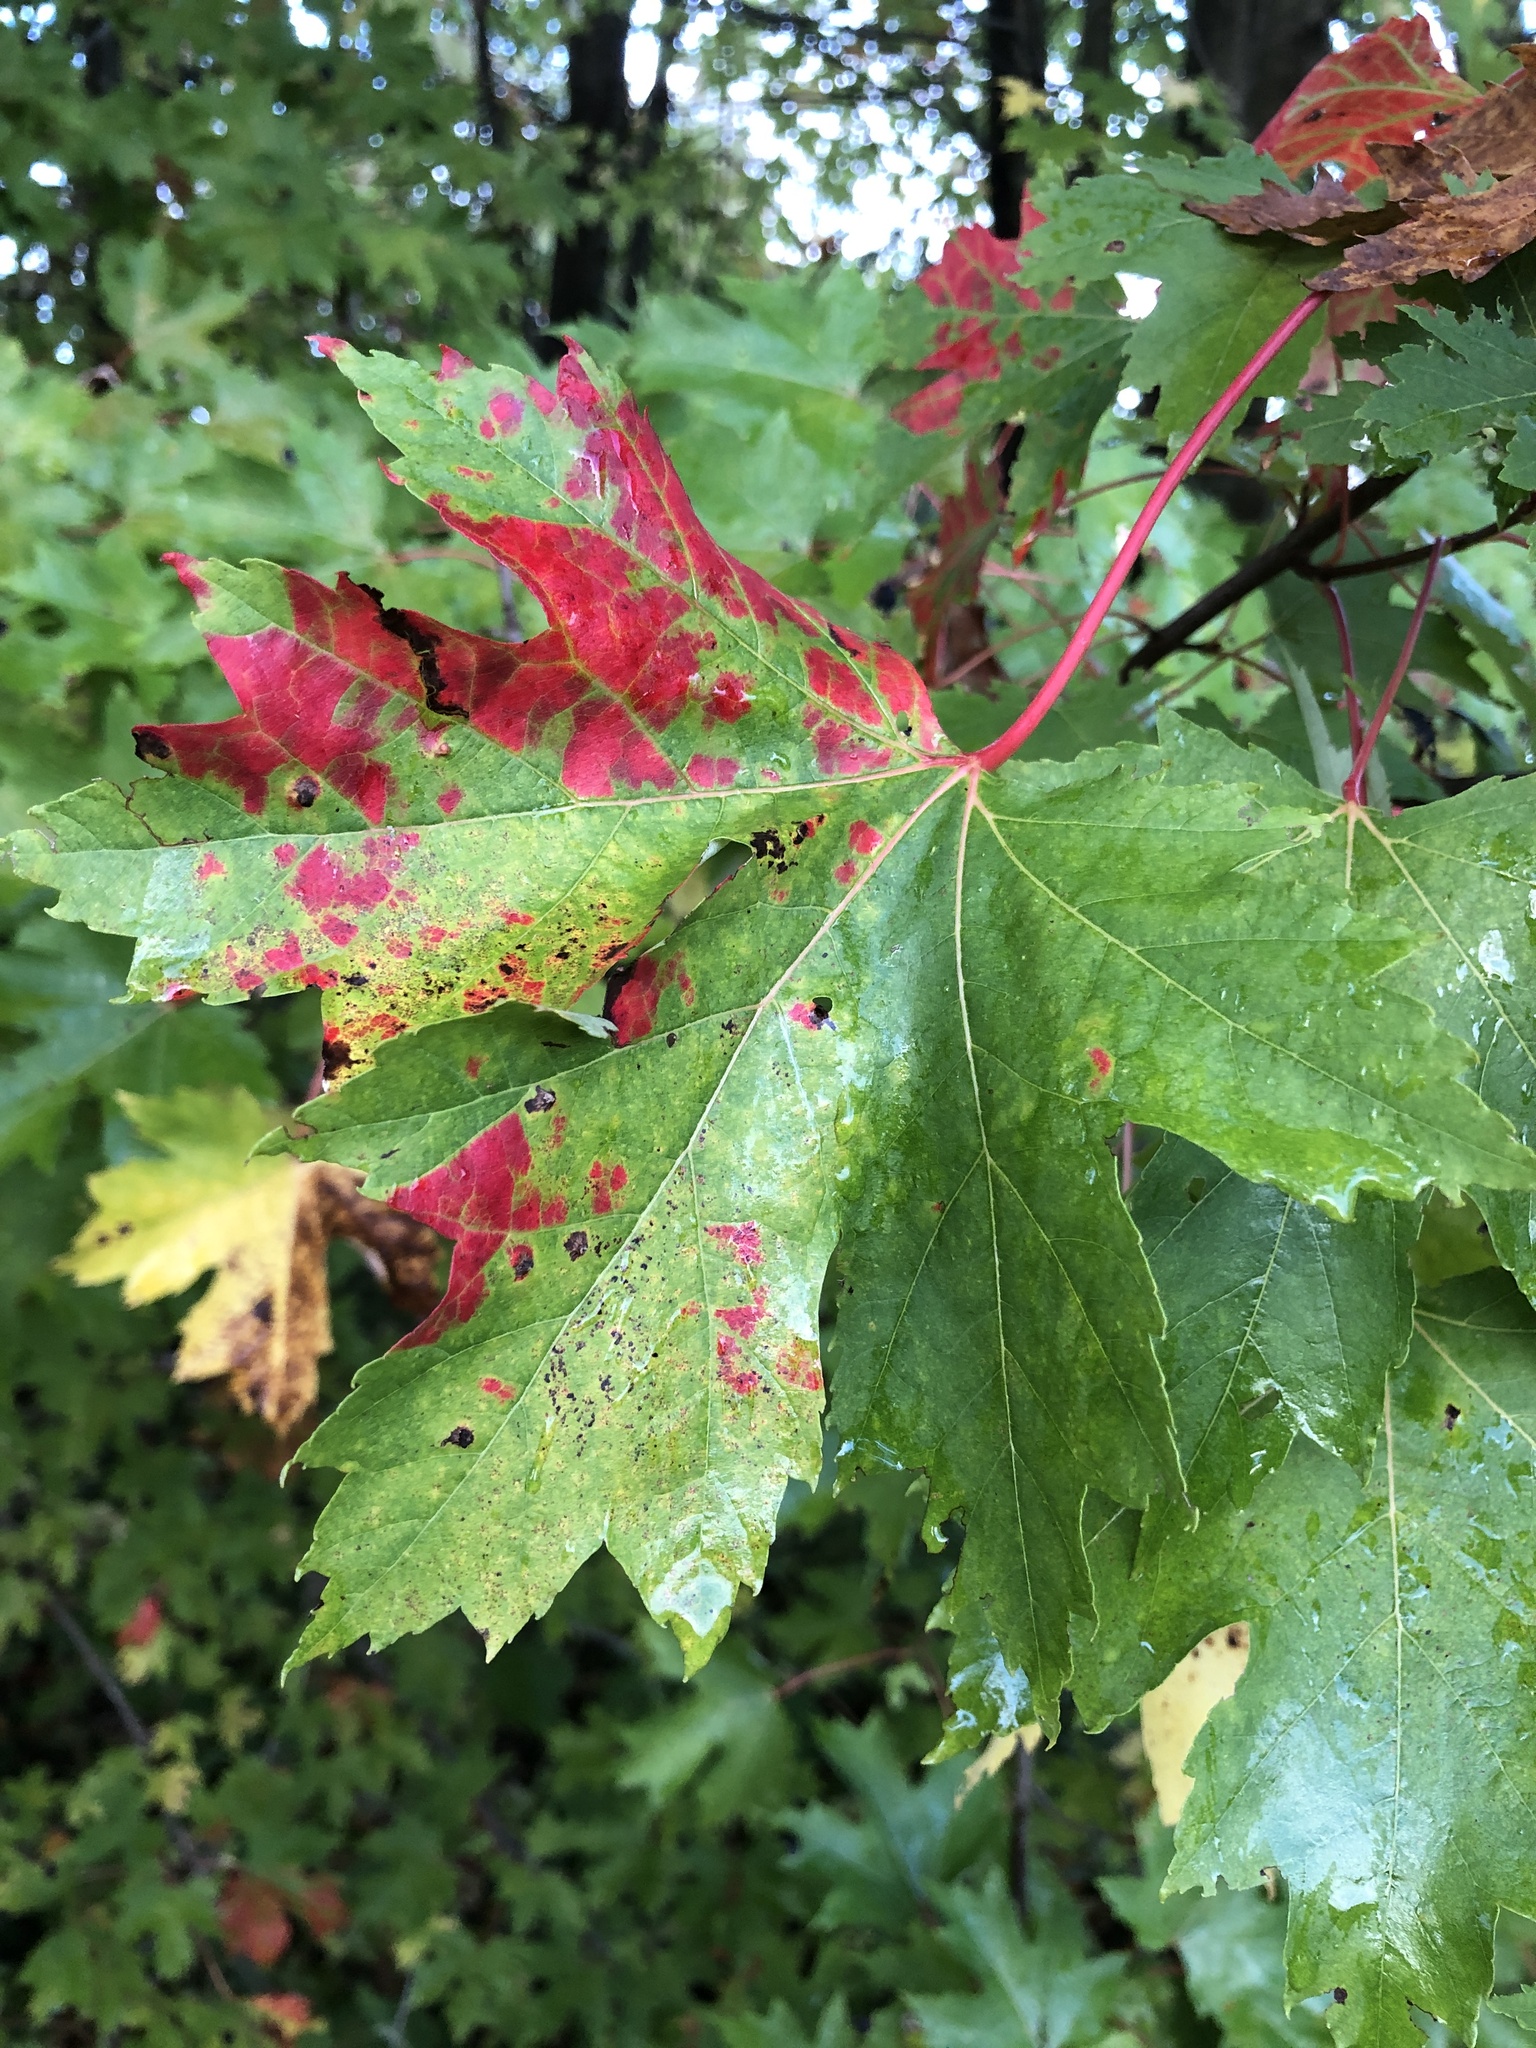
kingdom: Plantae
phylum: Tracheophyta
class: Magnoliopsida
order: Sapindales
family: Sapindaceae
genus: Acer
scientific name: Acer rubrum
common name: Red maple
